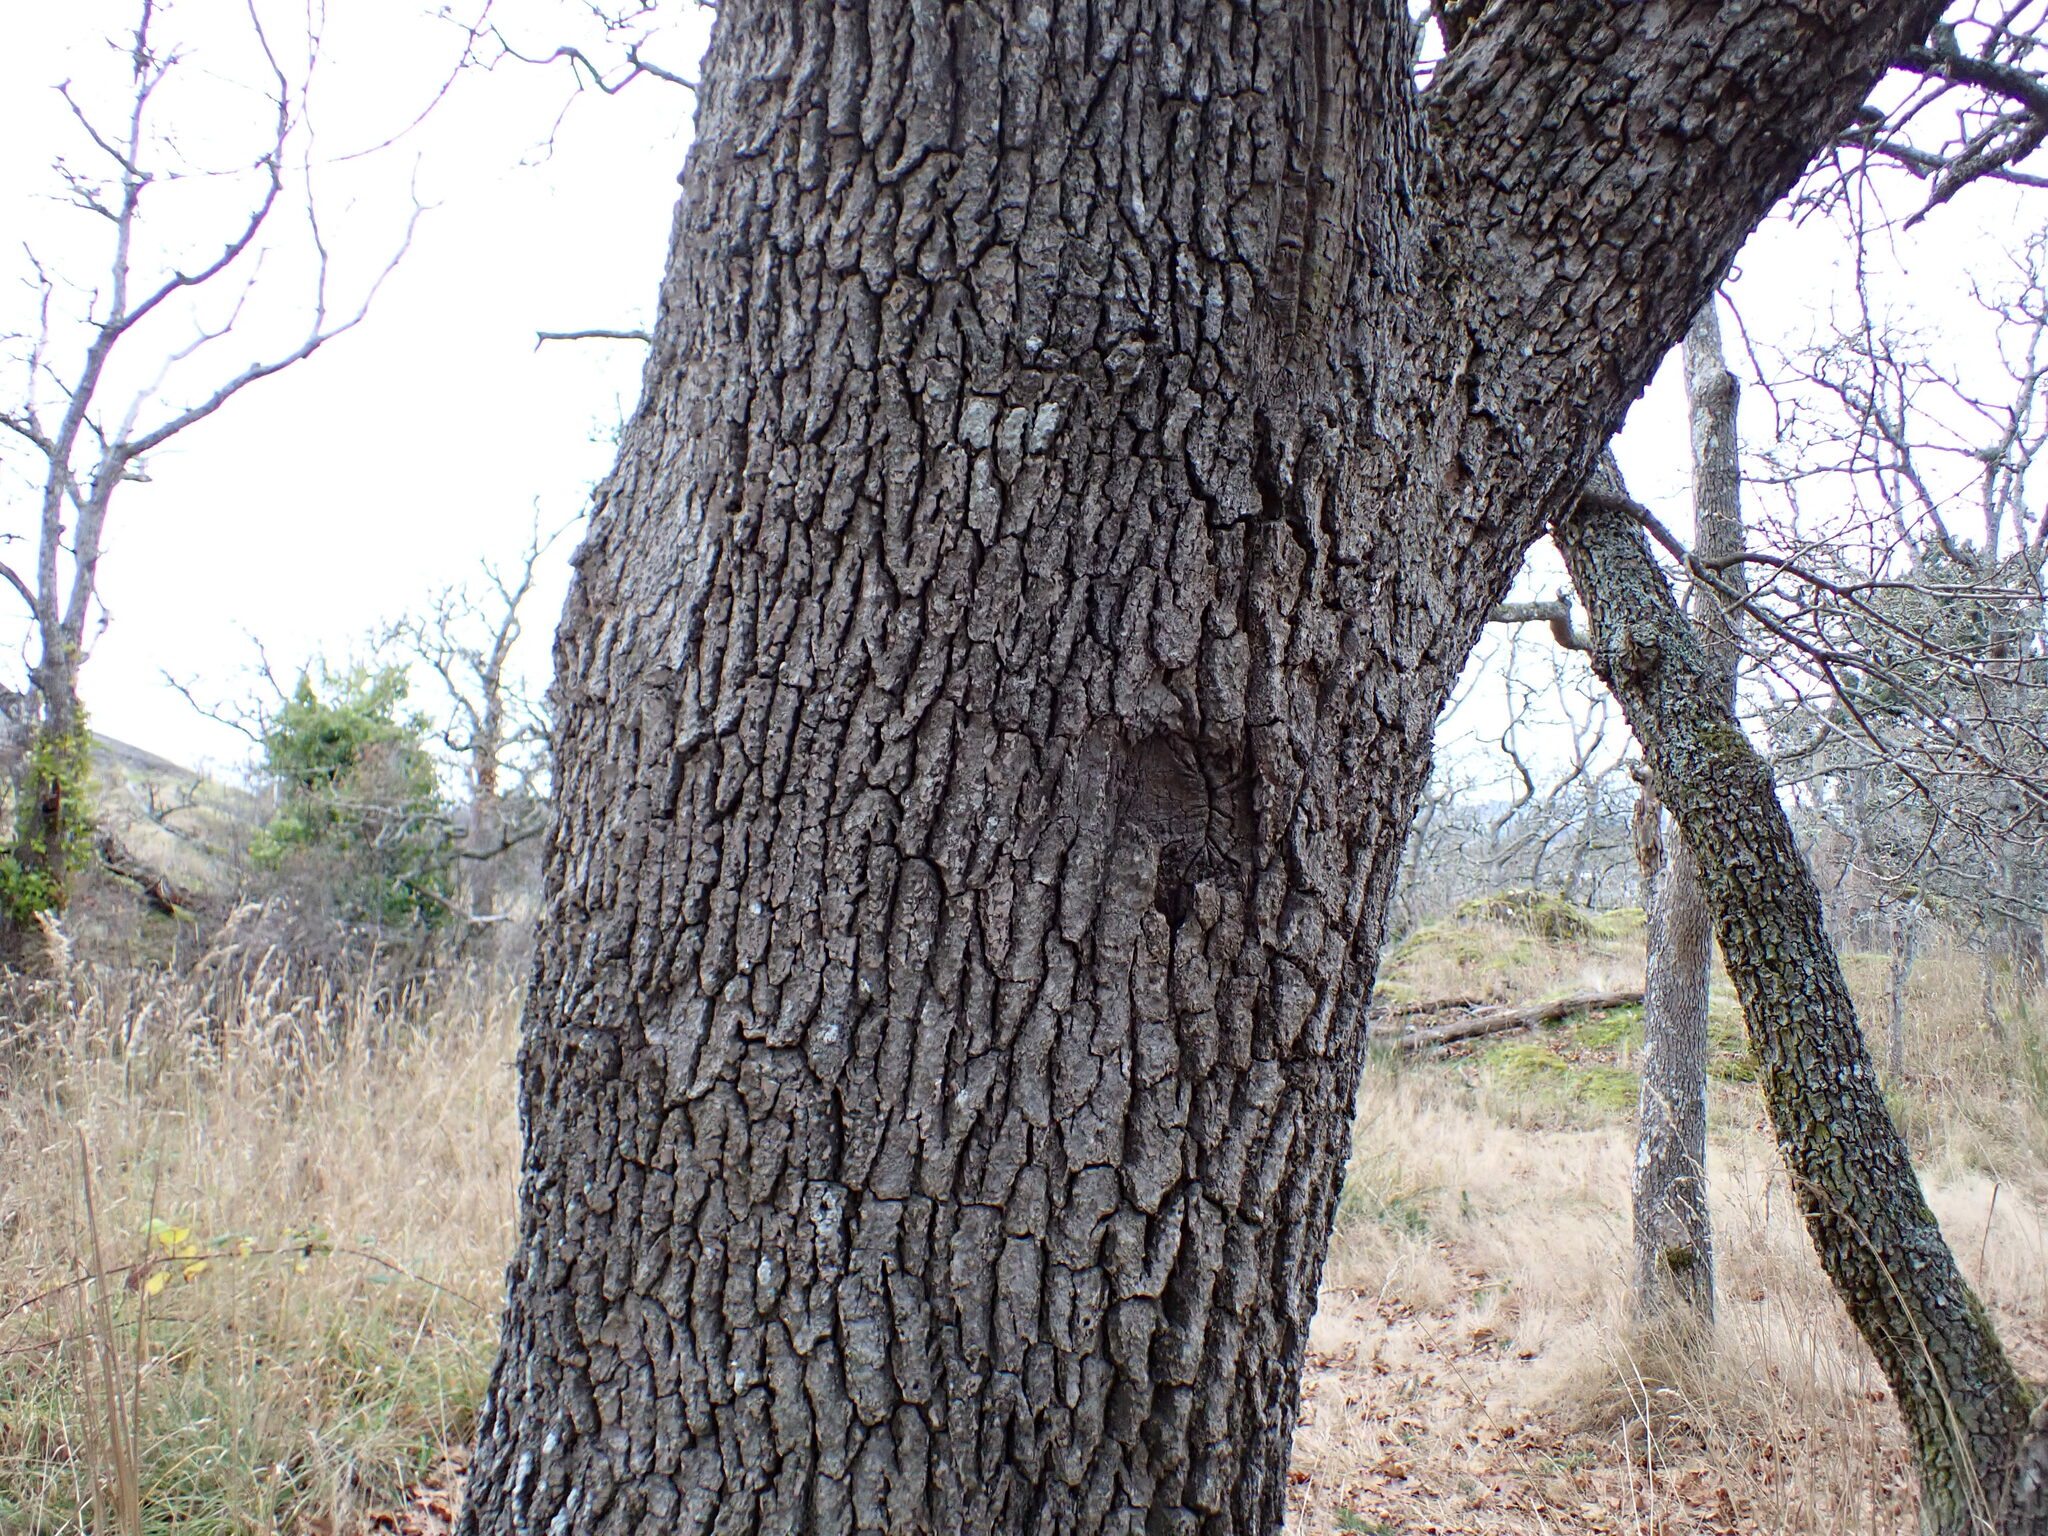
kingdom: Plantae
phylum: Tracheophyta
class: Magnoliopsida
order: Fagales
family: Fagaceae
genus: Quercus
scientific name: Quercus garryana
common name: Garry oak
